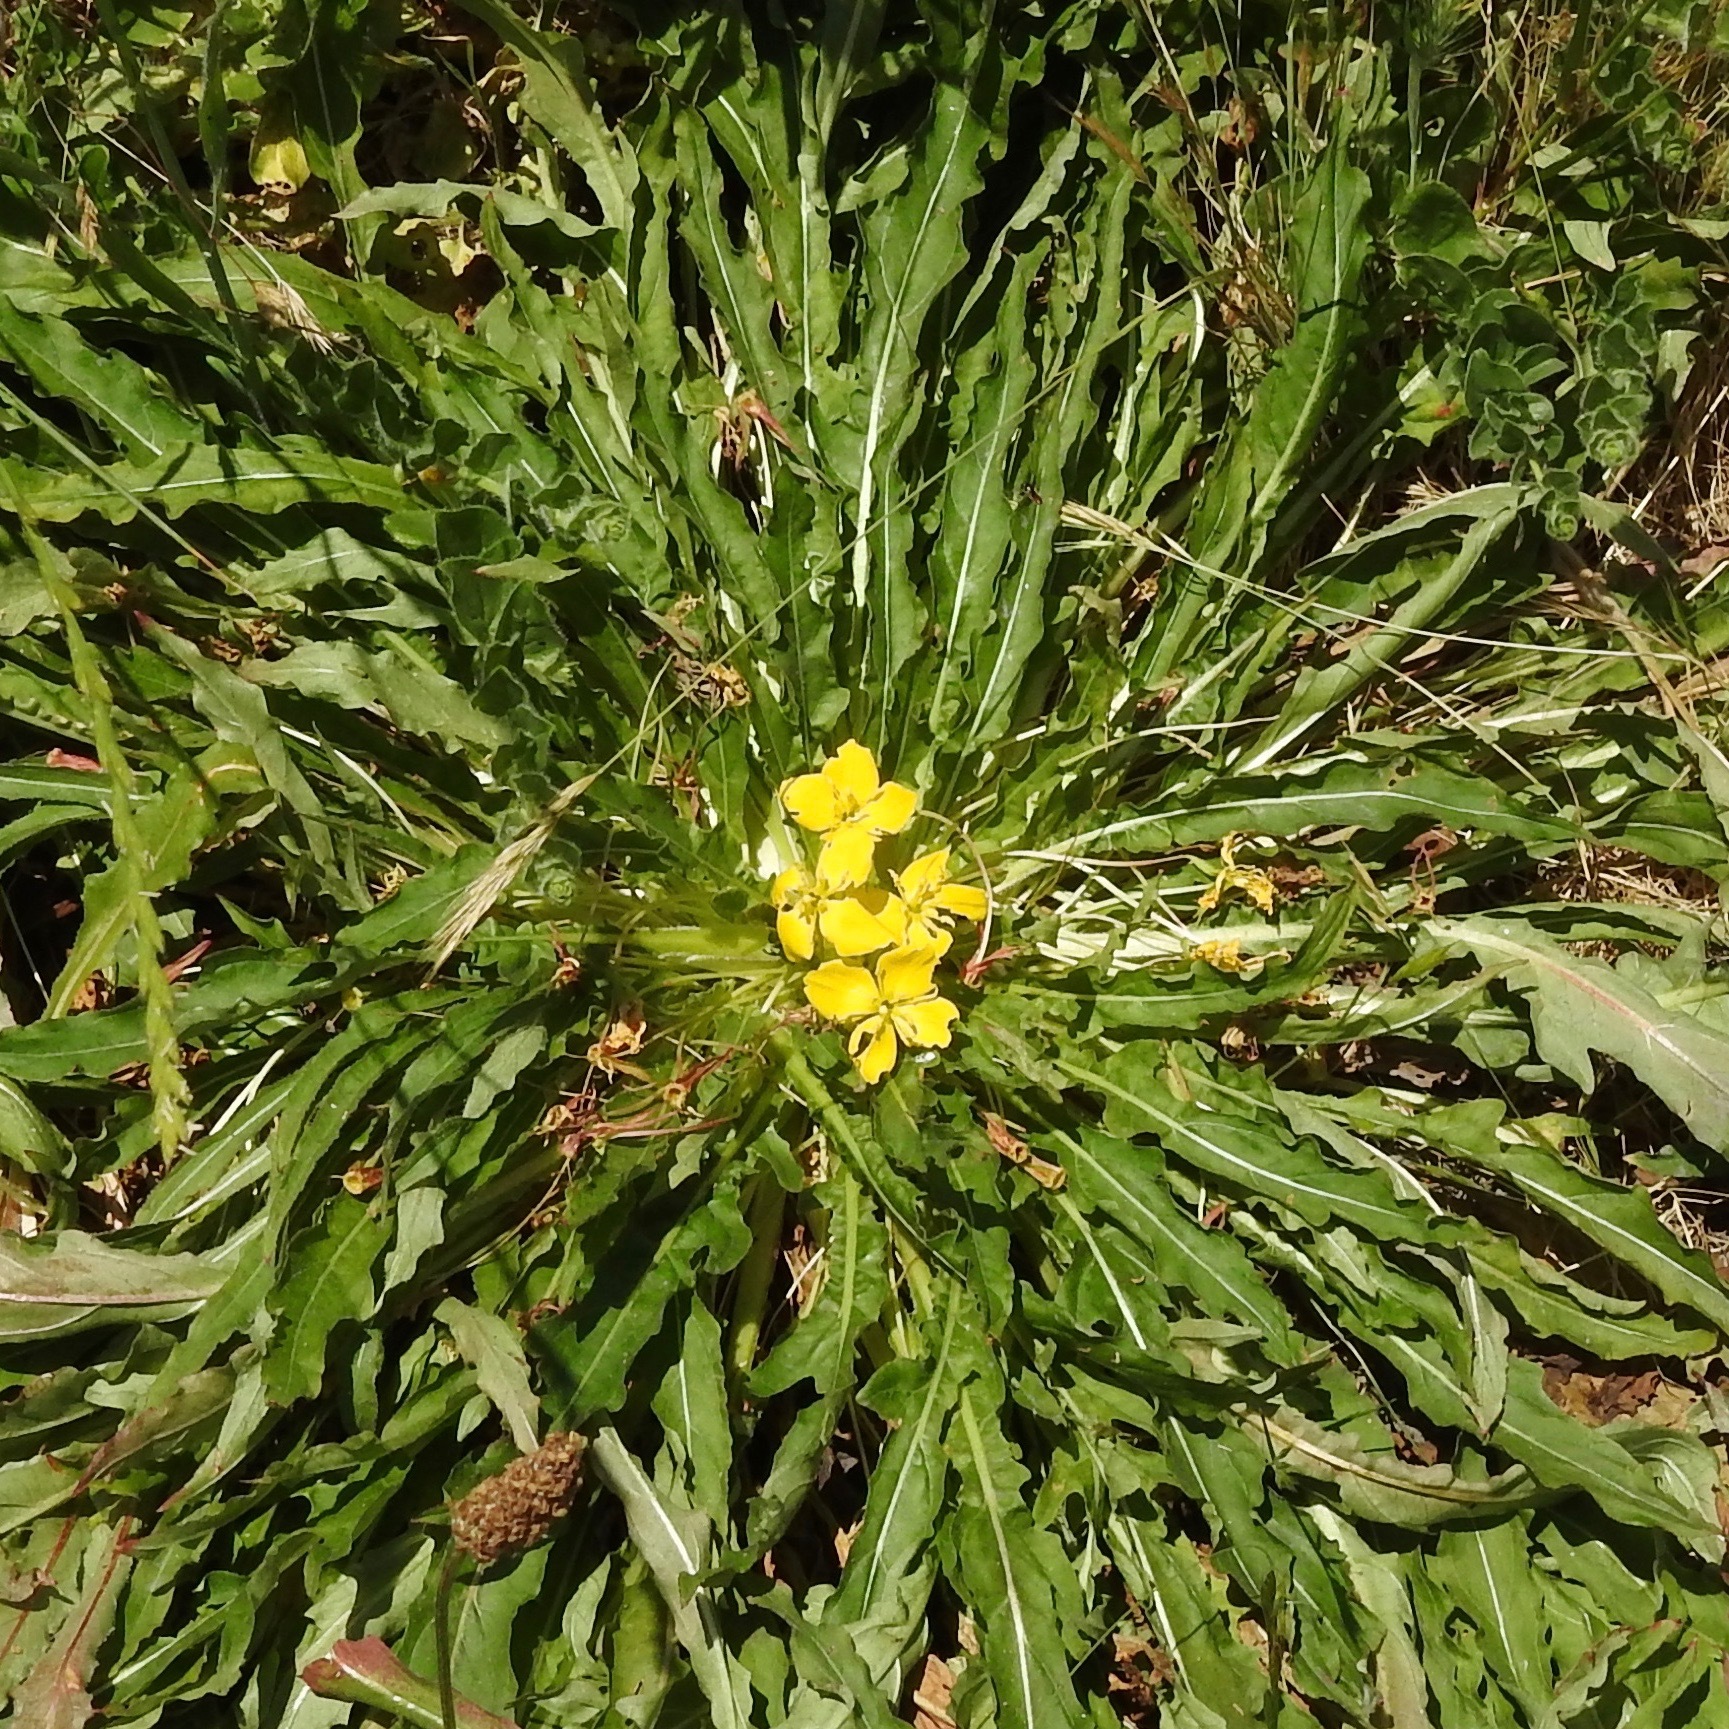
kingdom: Plantae
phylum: Tracheophyta
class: Magnoliopsida
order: Myrtales
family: Onagraceae
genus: Taraxia
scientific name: Taraxia ovata
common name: Goldeneggs
